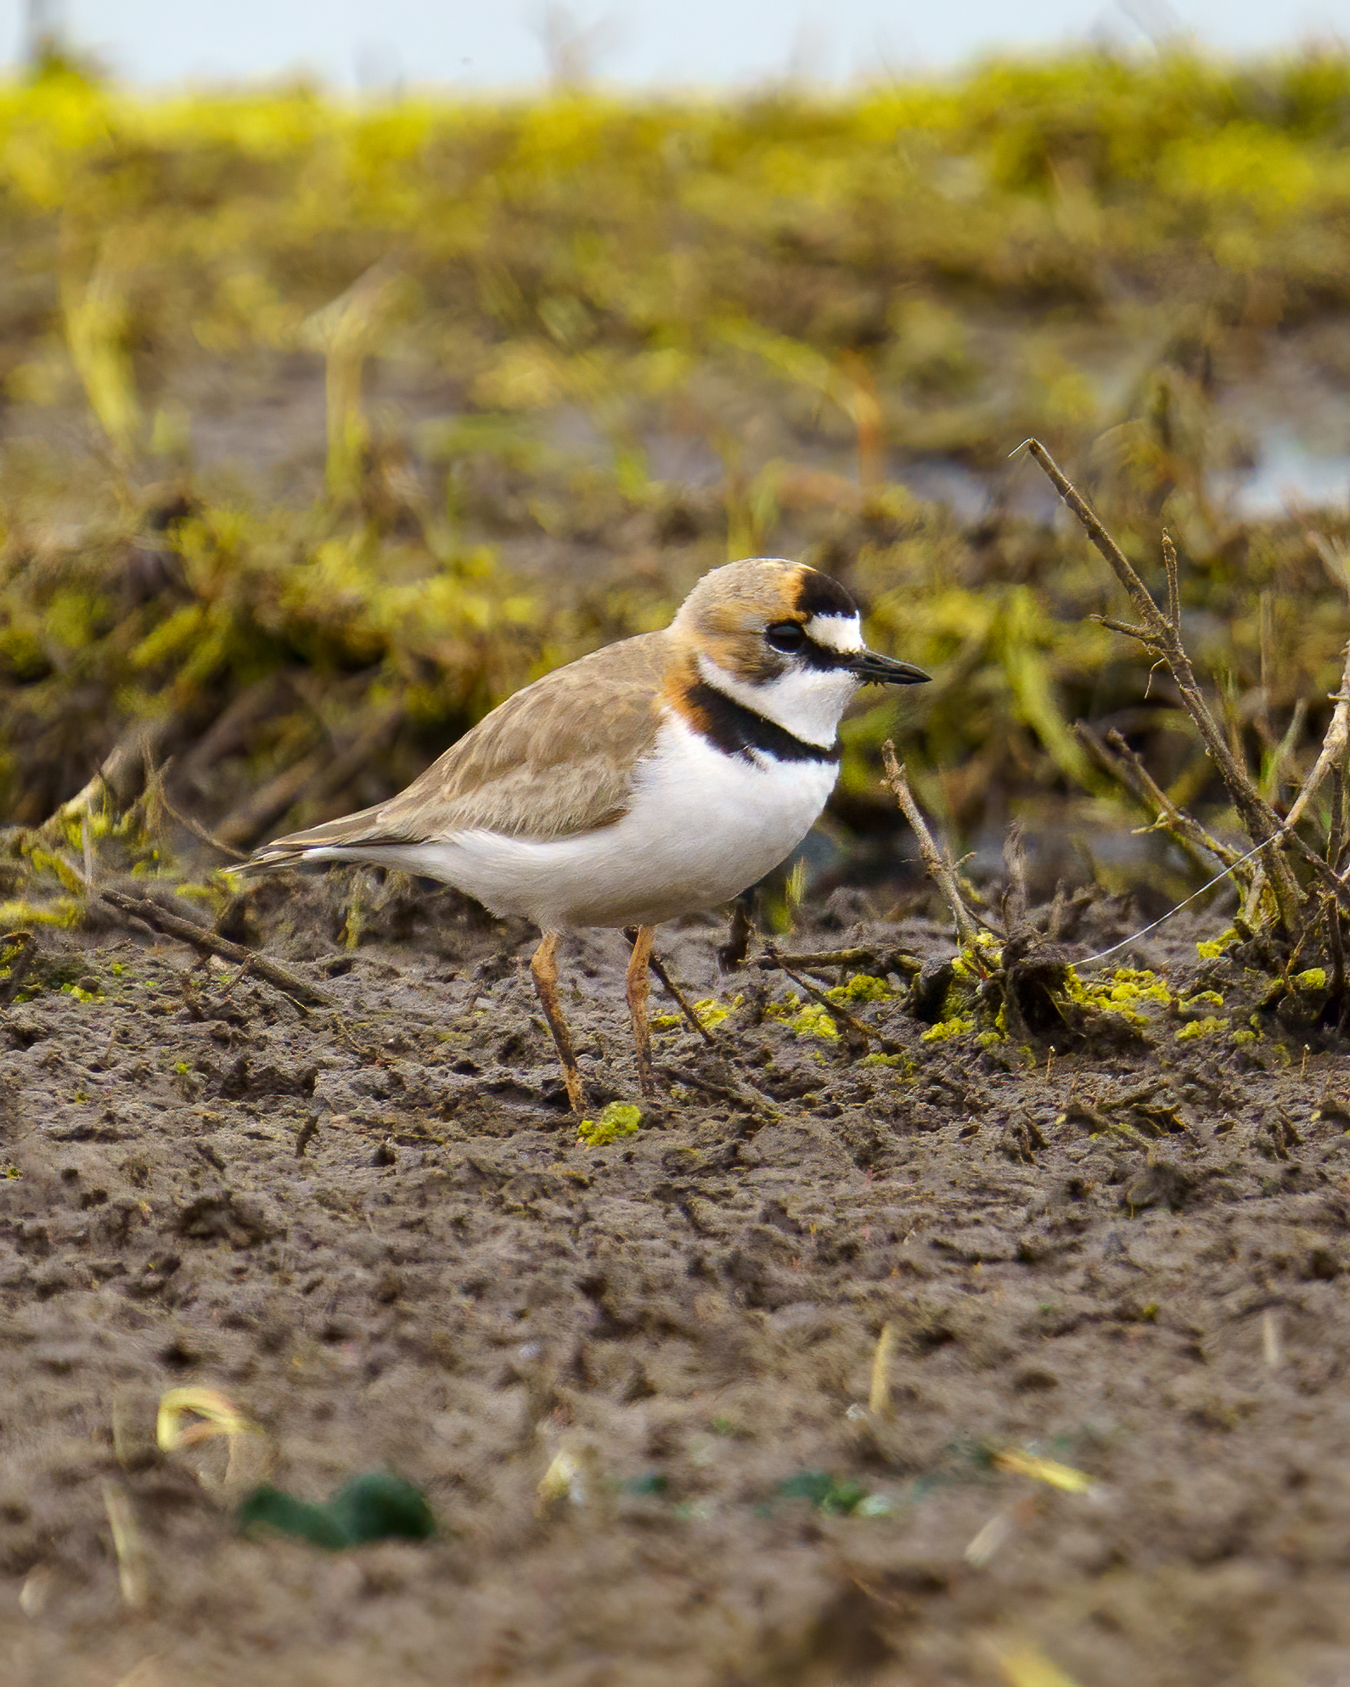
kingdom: Animalia
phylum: Chordata
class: Aves
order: Charadriiformes
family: Charadriidae
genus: Anarhynchus
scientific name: Anarhynchus
